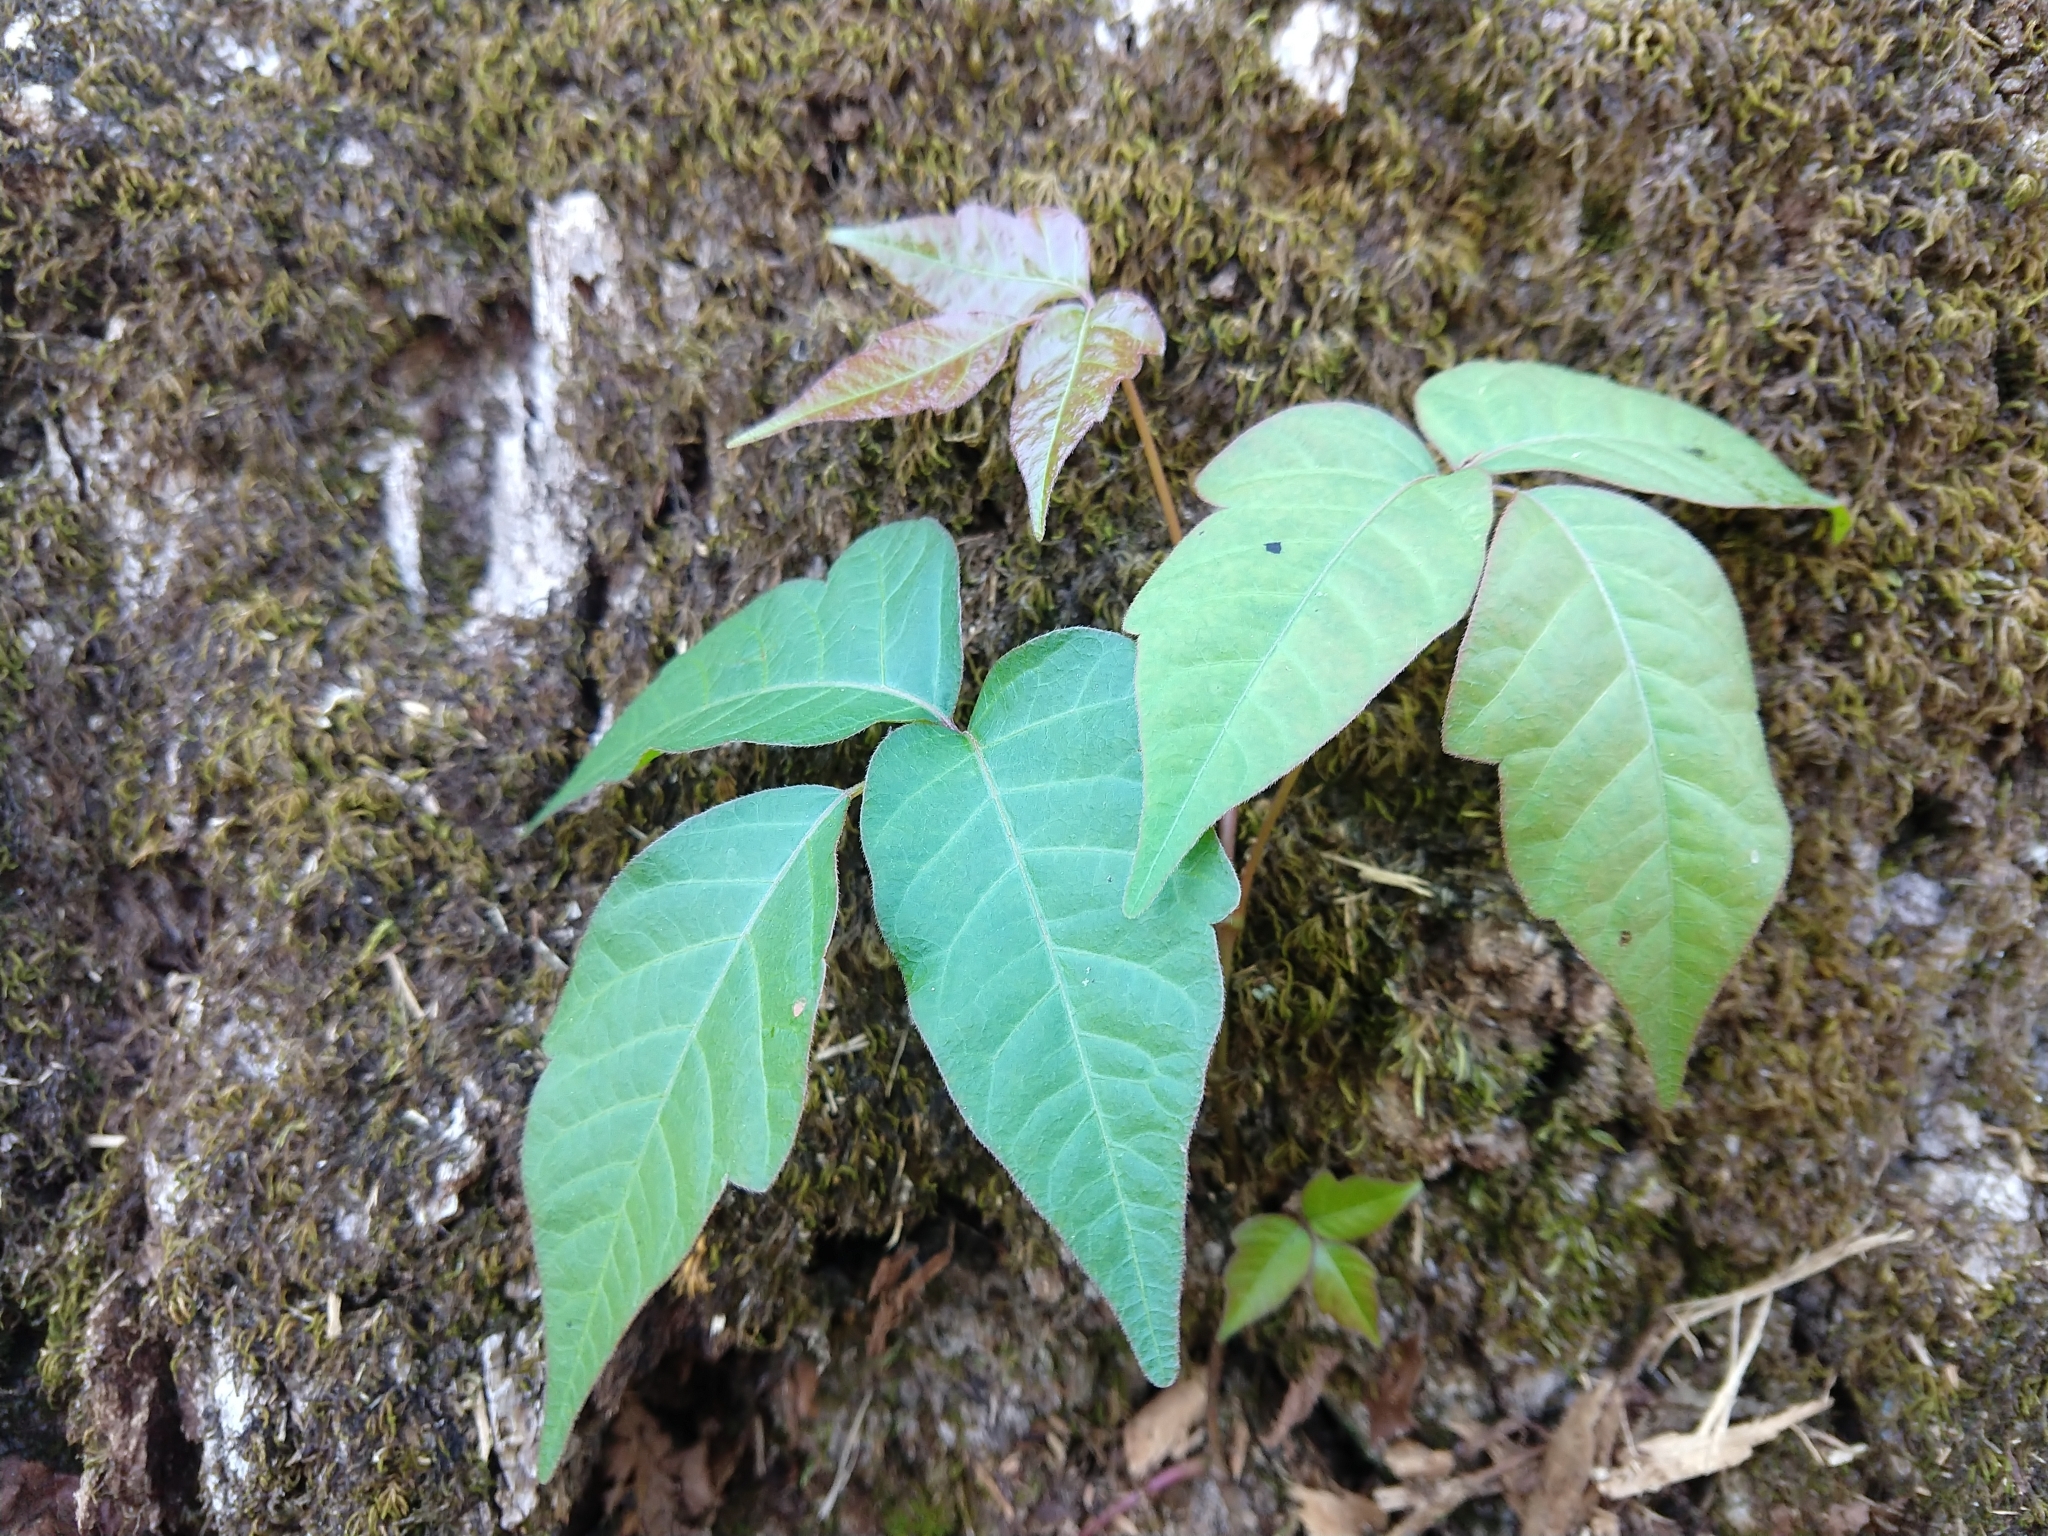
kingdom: Plantae
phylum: Tracheophyta
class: Magnoliopsida
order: Sapindales
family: Anacardiaceae
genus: Toxicodendron
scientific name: Toxicodendron radicans
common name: Poison ivy
